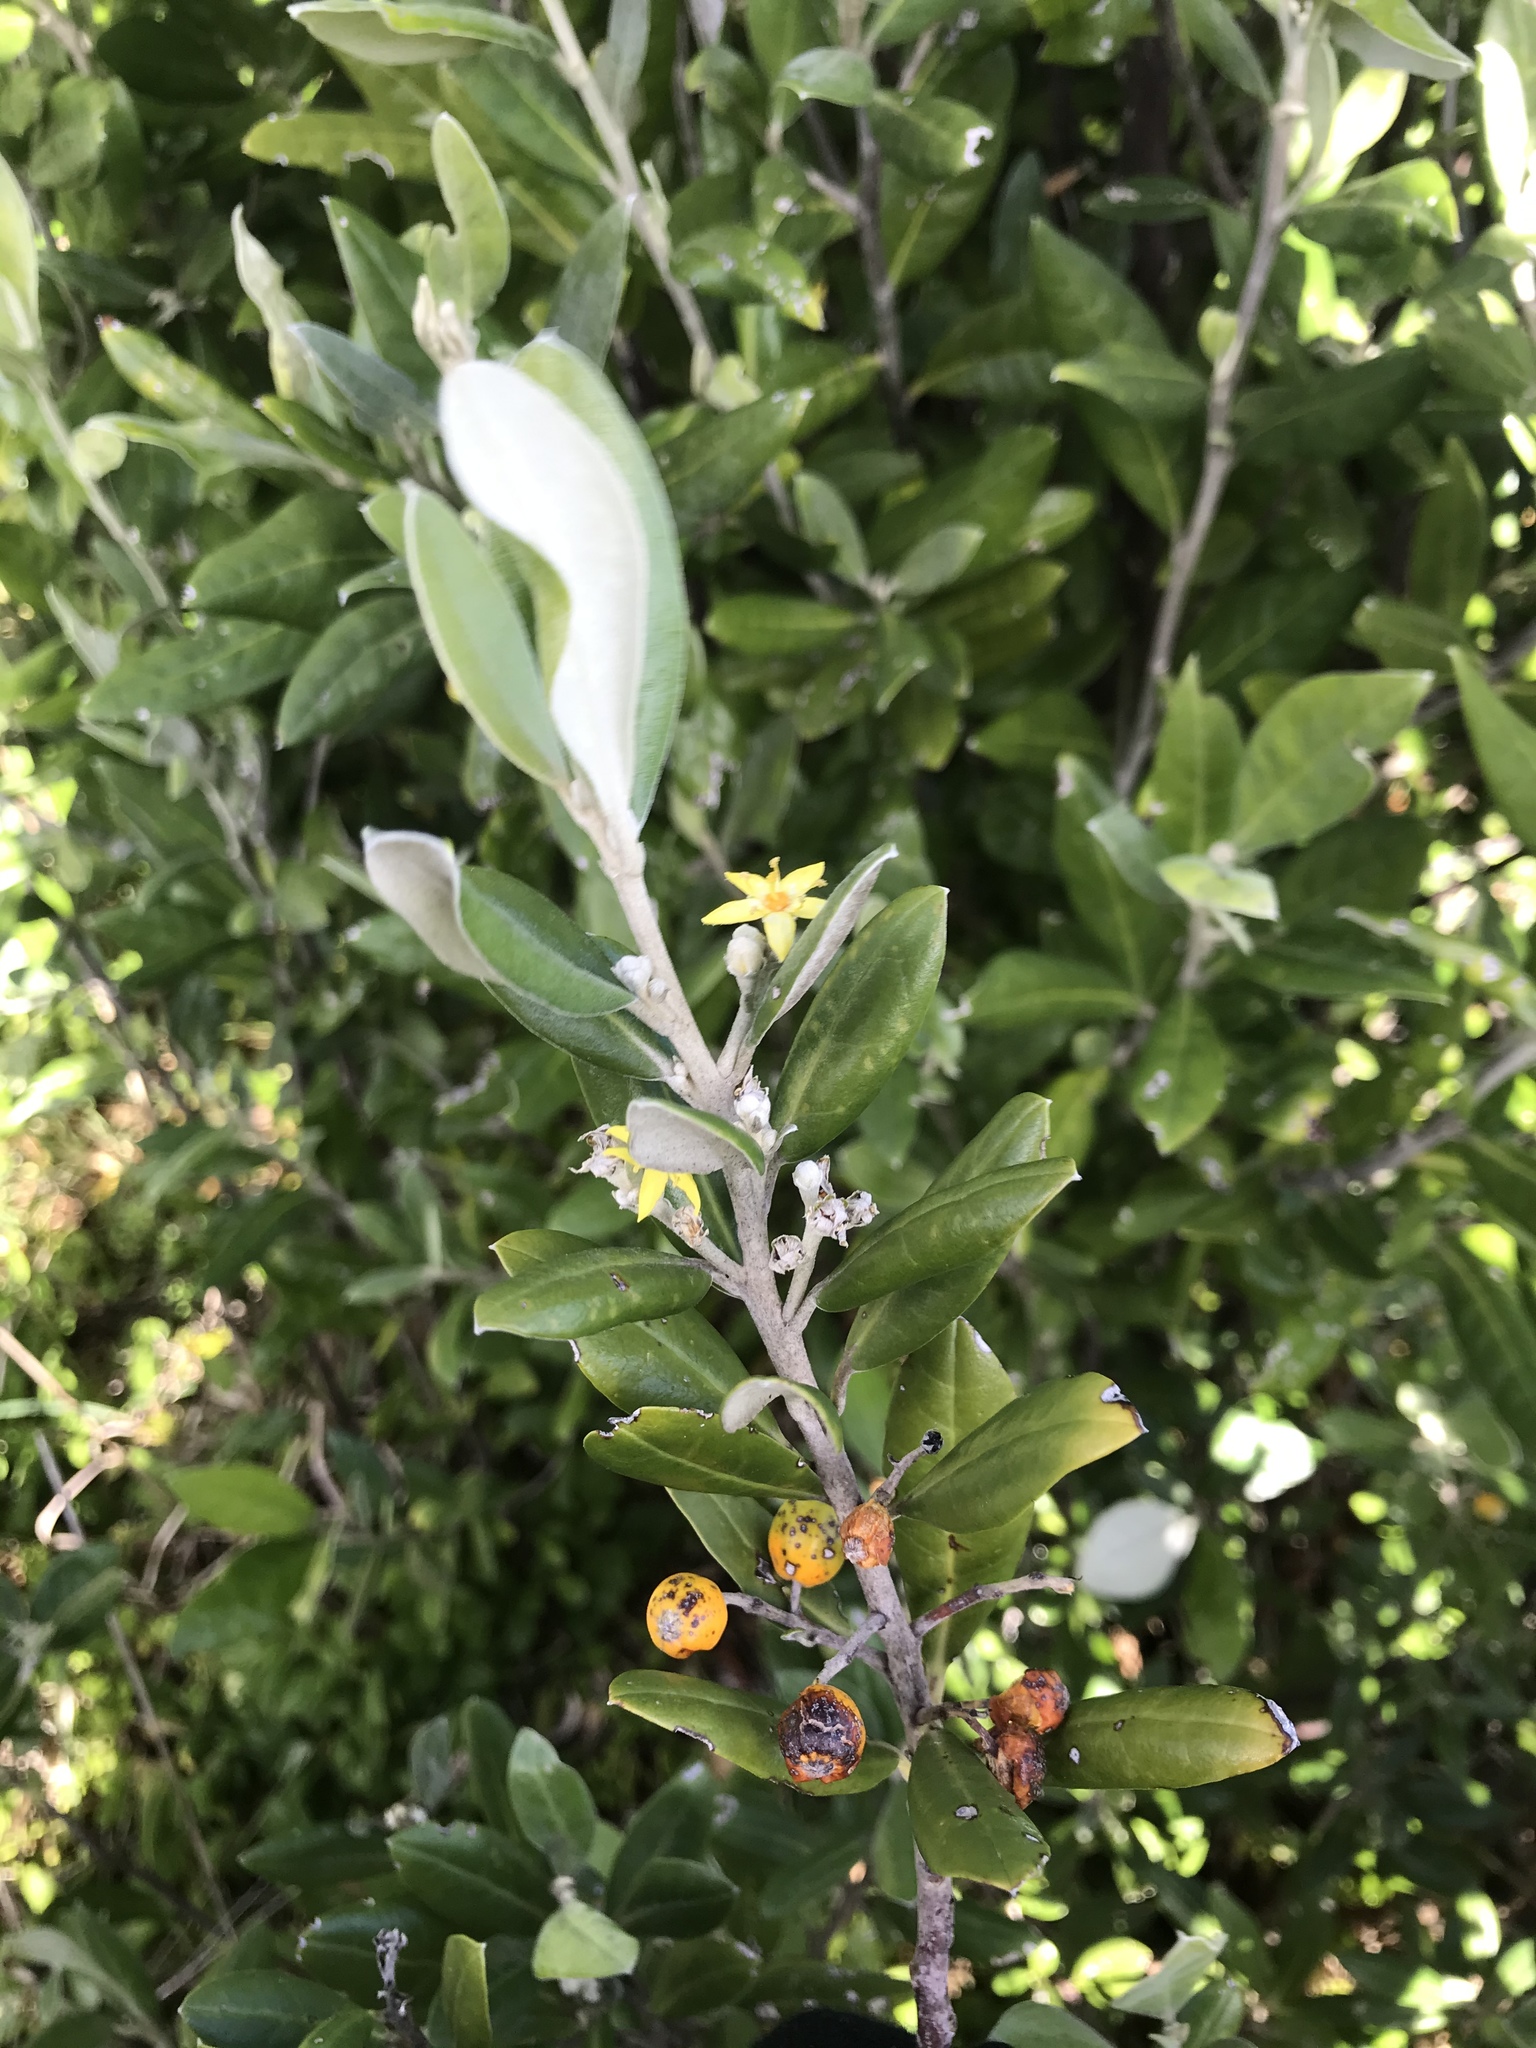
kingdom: Plantae
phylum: Tracheophyta
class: Magnoliopsida
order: Asterales
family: Argophyllaceae
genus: Corokia
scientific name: Corokia macrocarpa
